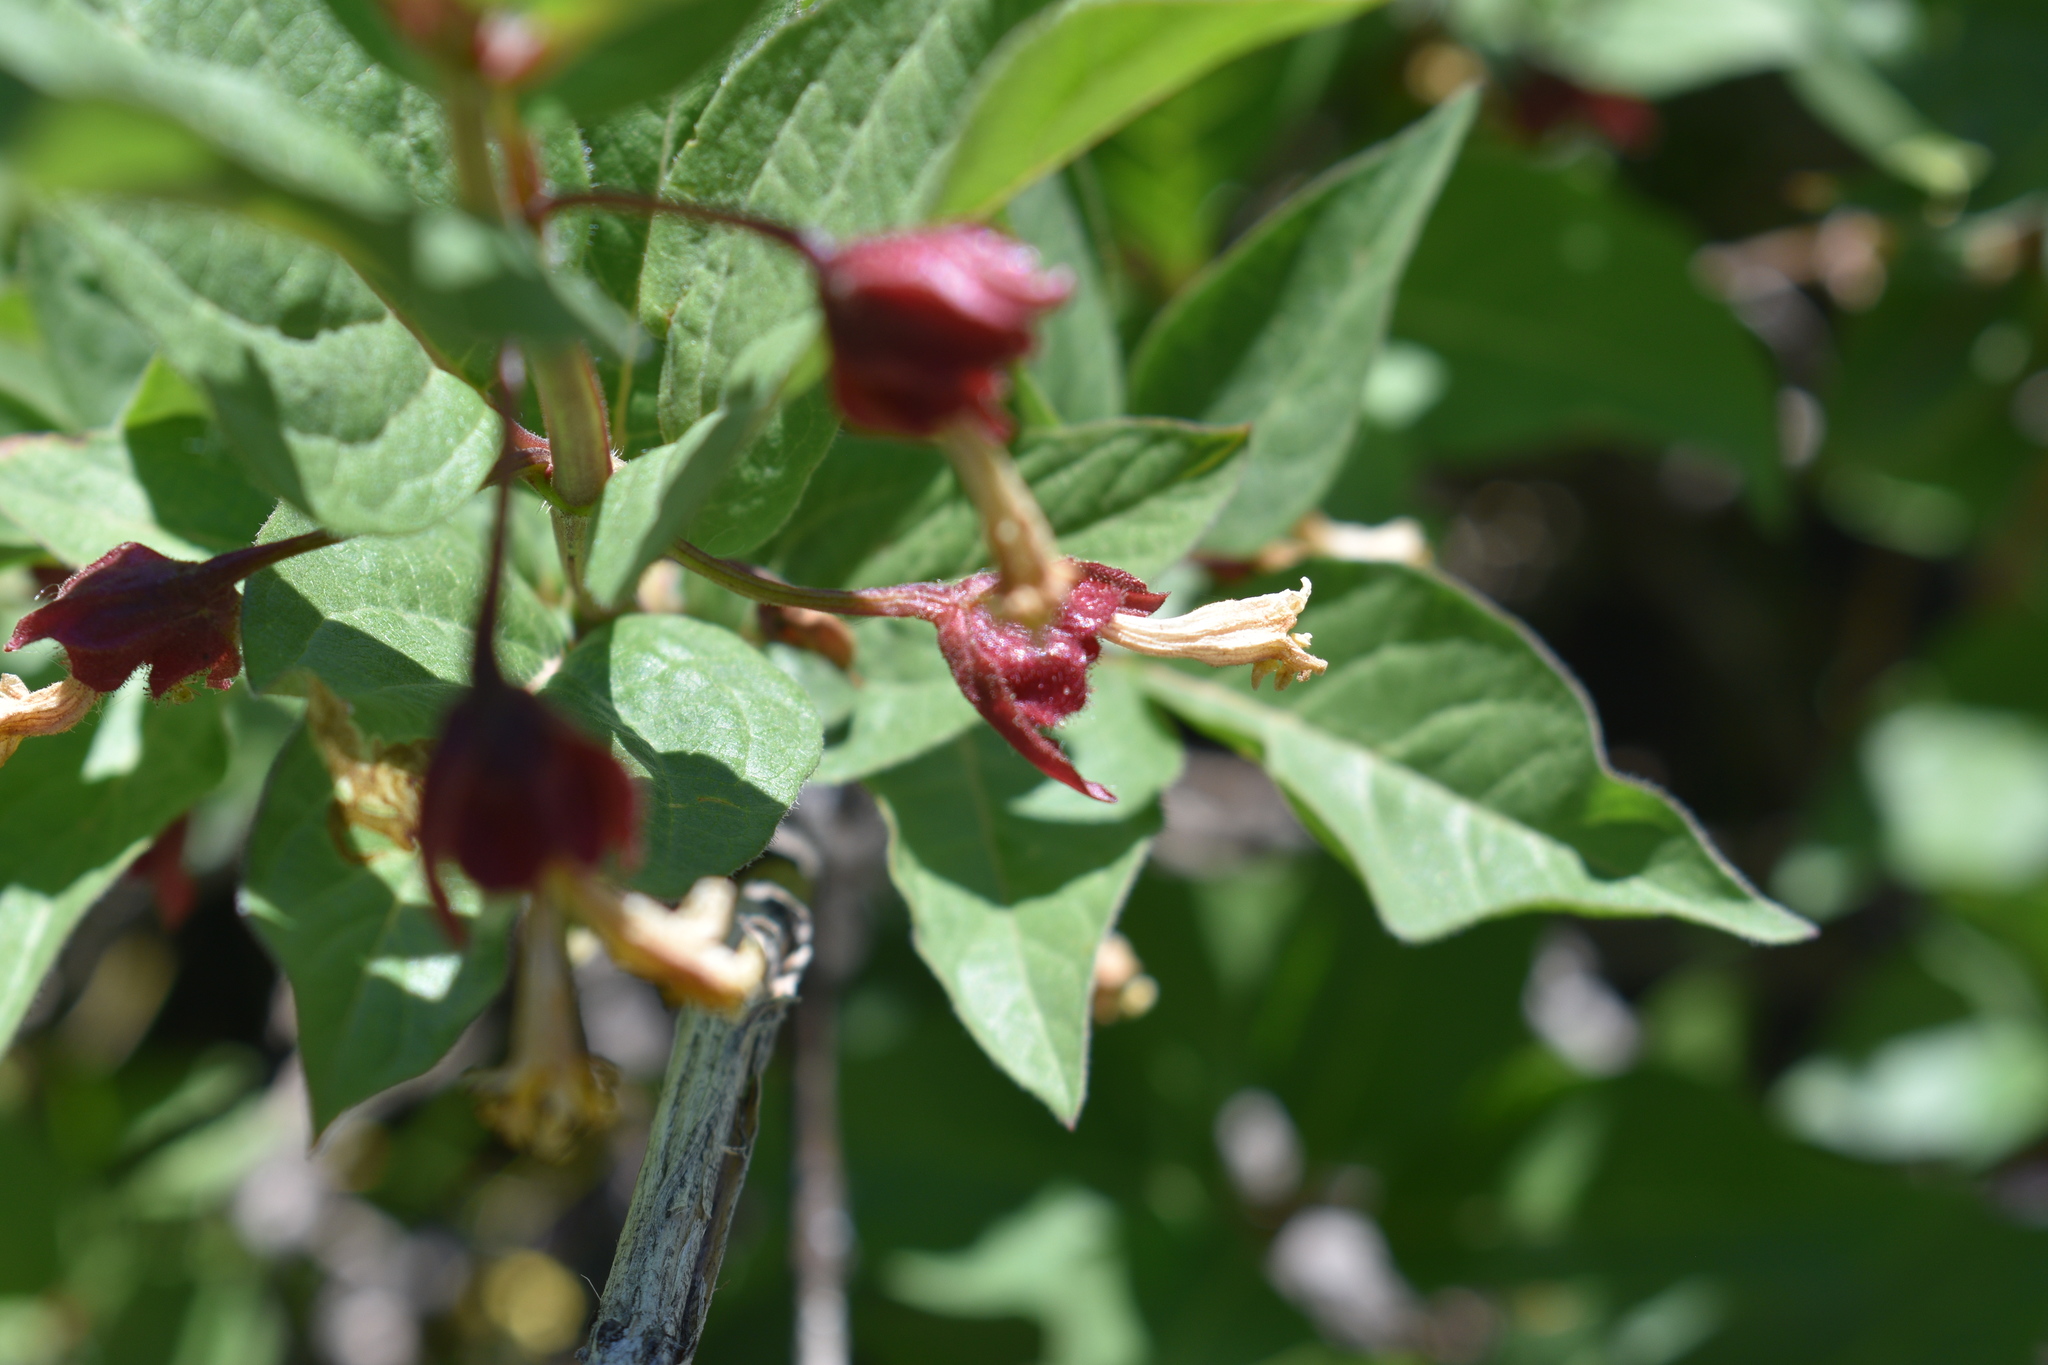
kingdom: Plantae
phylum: Tracheophyta
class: Magnoliopsida
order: Dipsacales
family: Caprifoliaceae
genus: Lonicera
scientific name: Lonicera involucrata
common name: Californian honeysuckle
